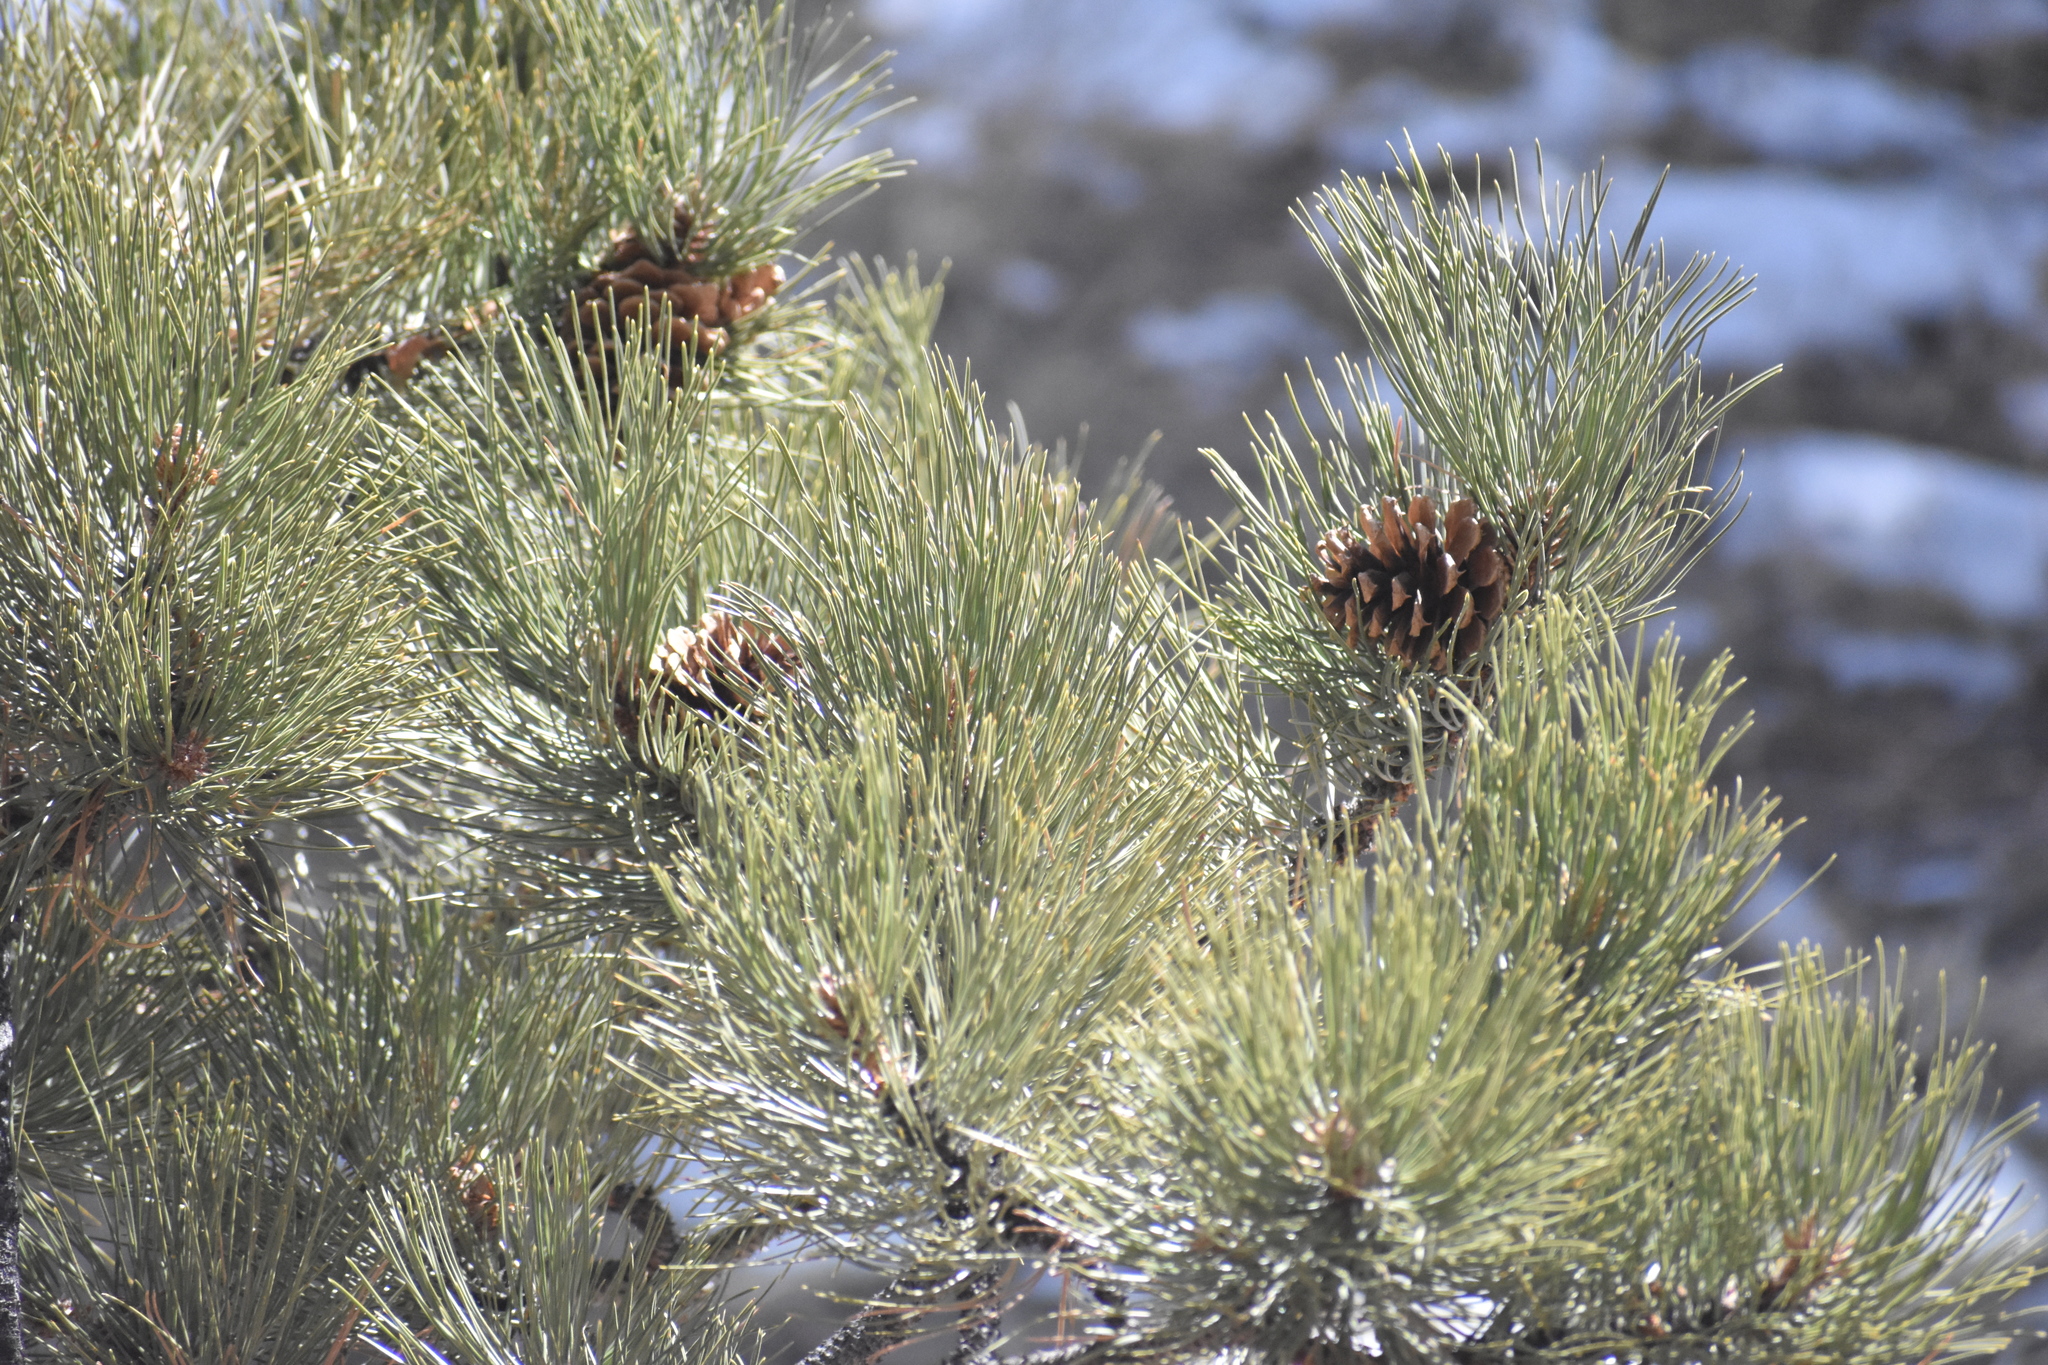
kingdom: Plantae
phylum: Tracheophyta
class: Pinopsida
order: Pinales
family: Pinaceae
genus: Pinus
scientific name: Pinus ponderosa
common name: Western yellow-pine
